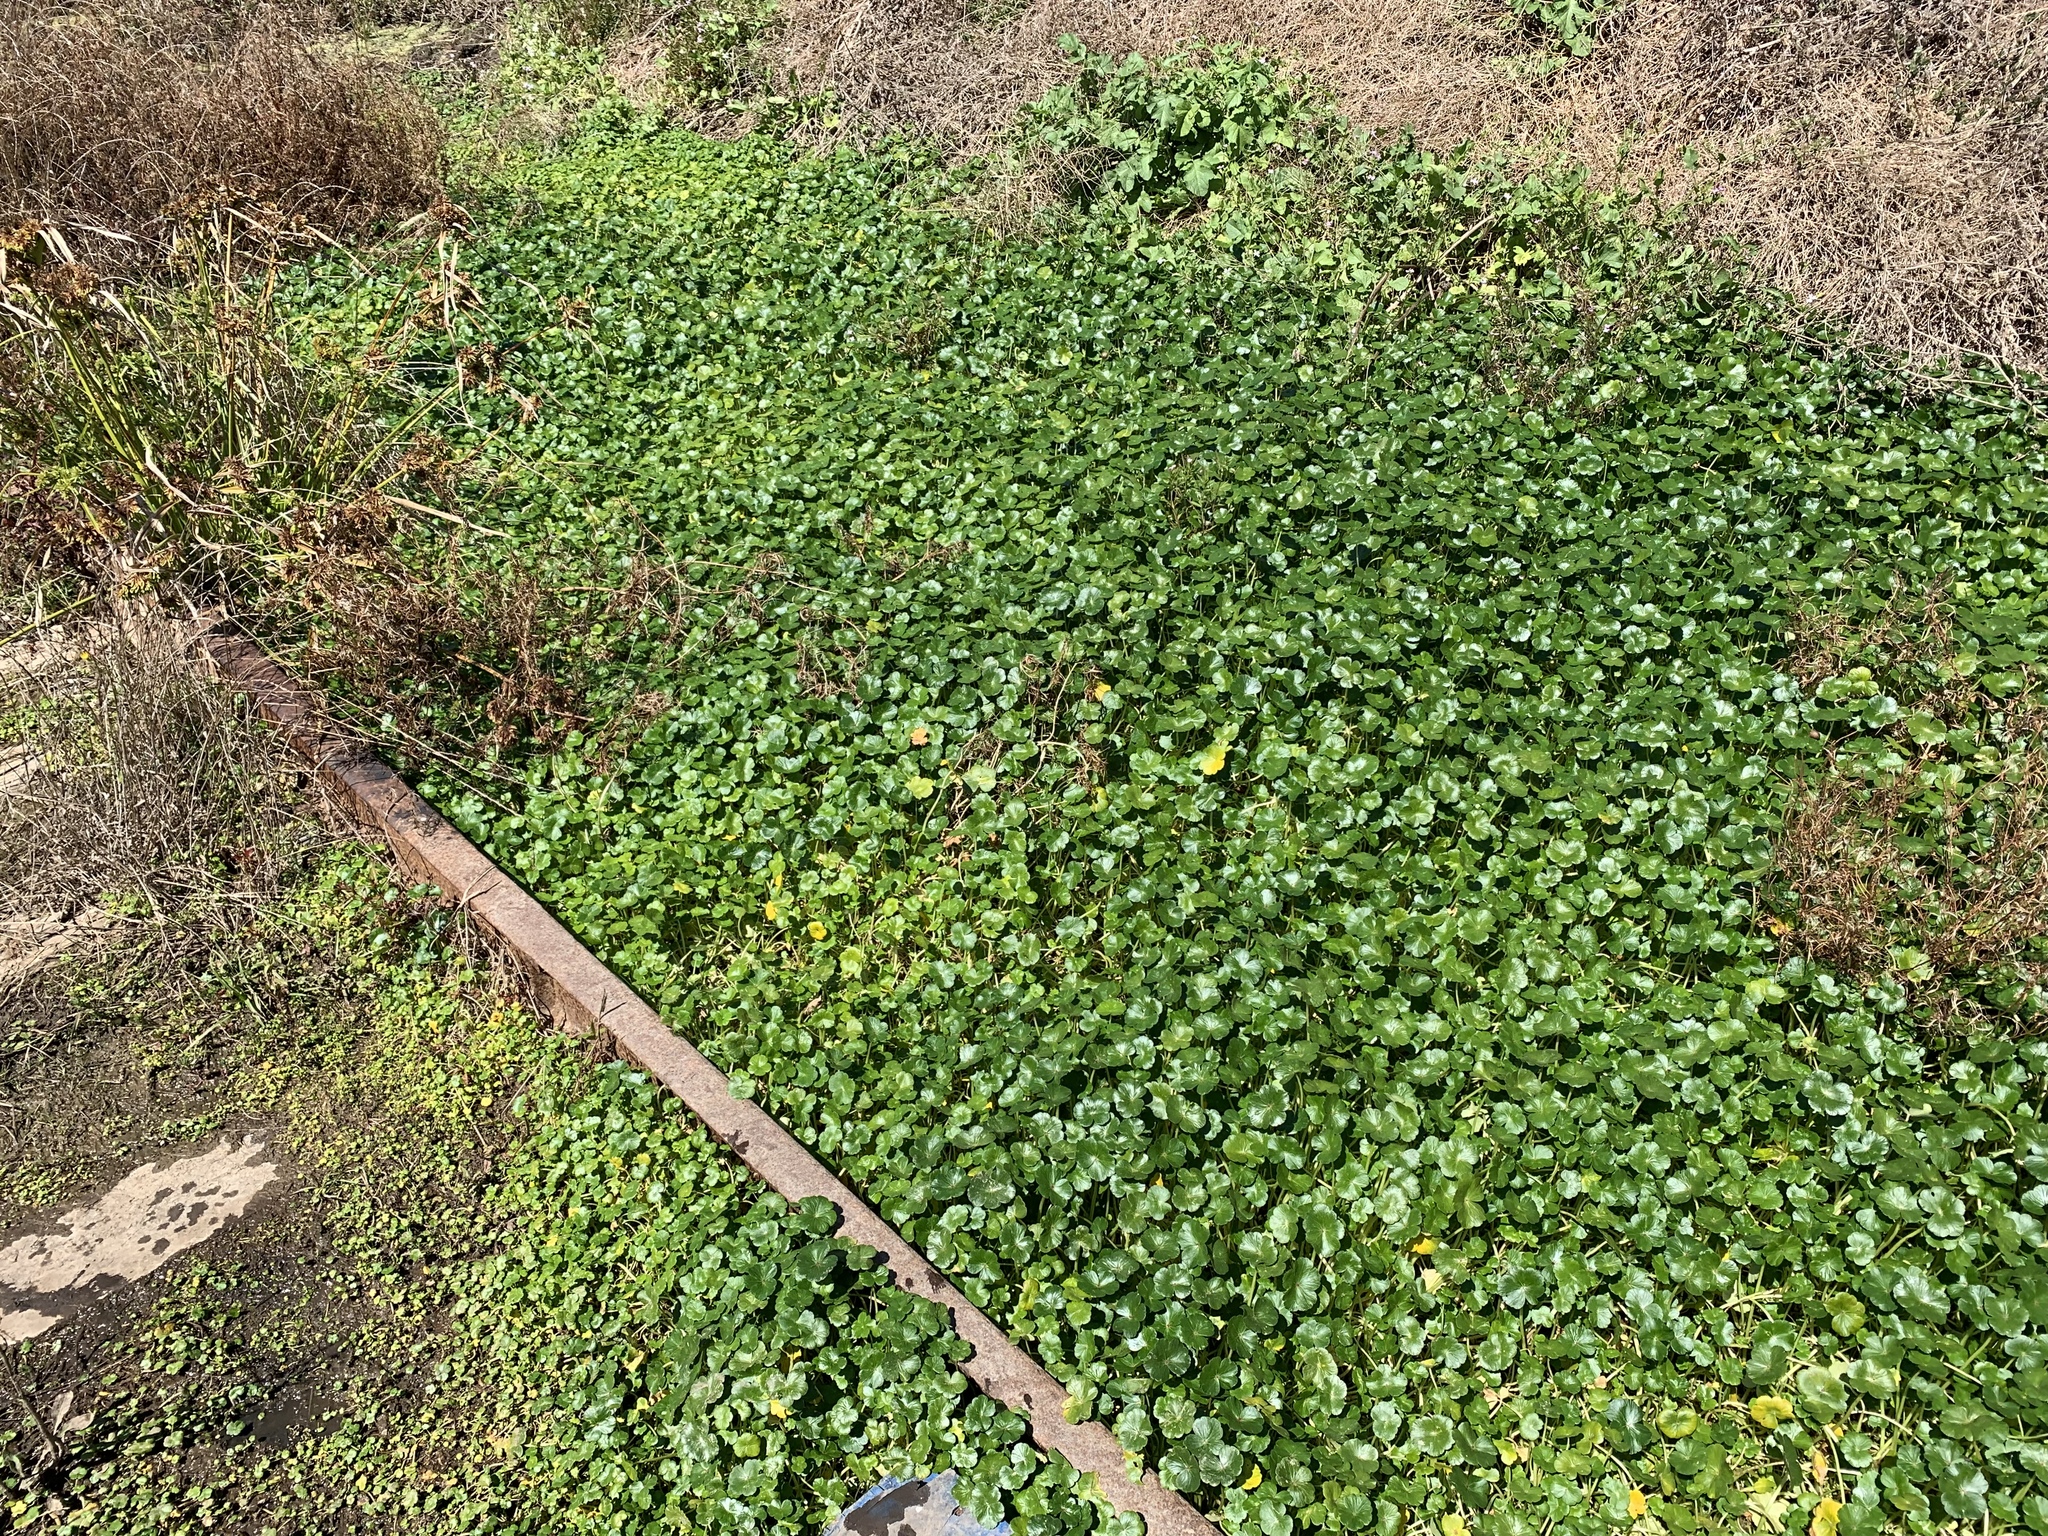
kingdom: Plantae
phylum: Tracheophyta
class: Magnoliopsida
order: Apiales
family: Araliaceae
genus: Hydrocotyle
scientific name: Hydrocotyle ranunculoides
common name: Floating pennywort
